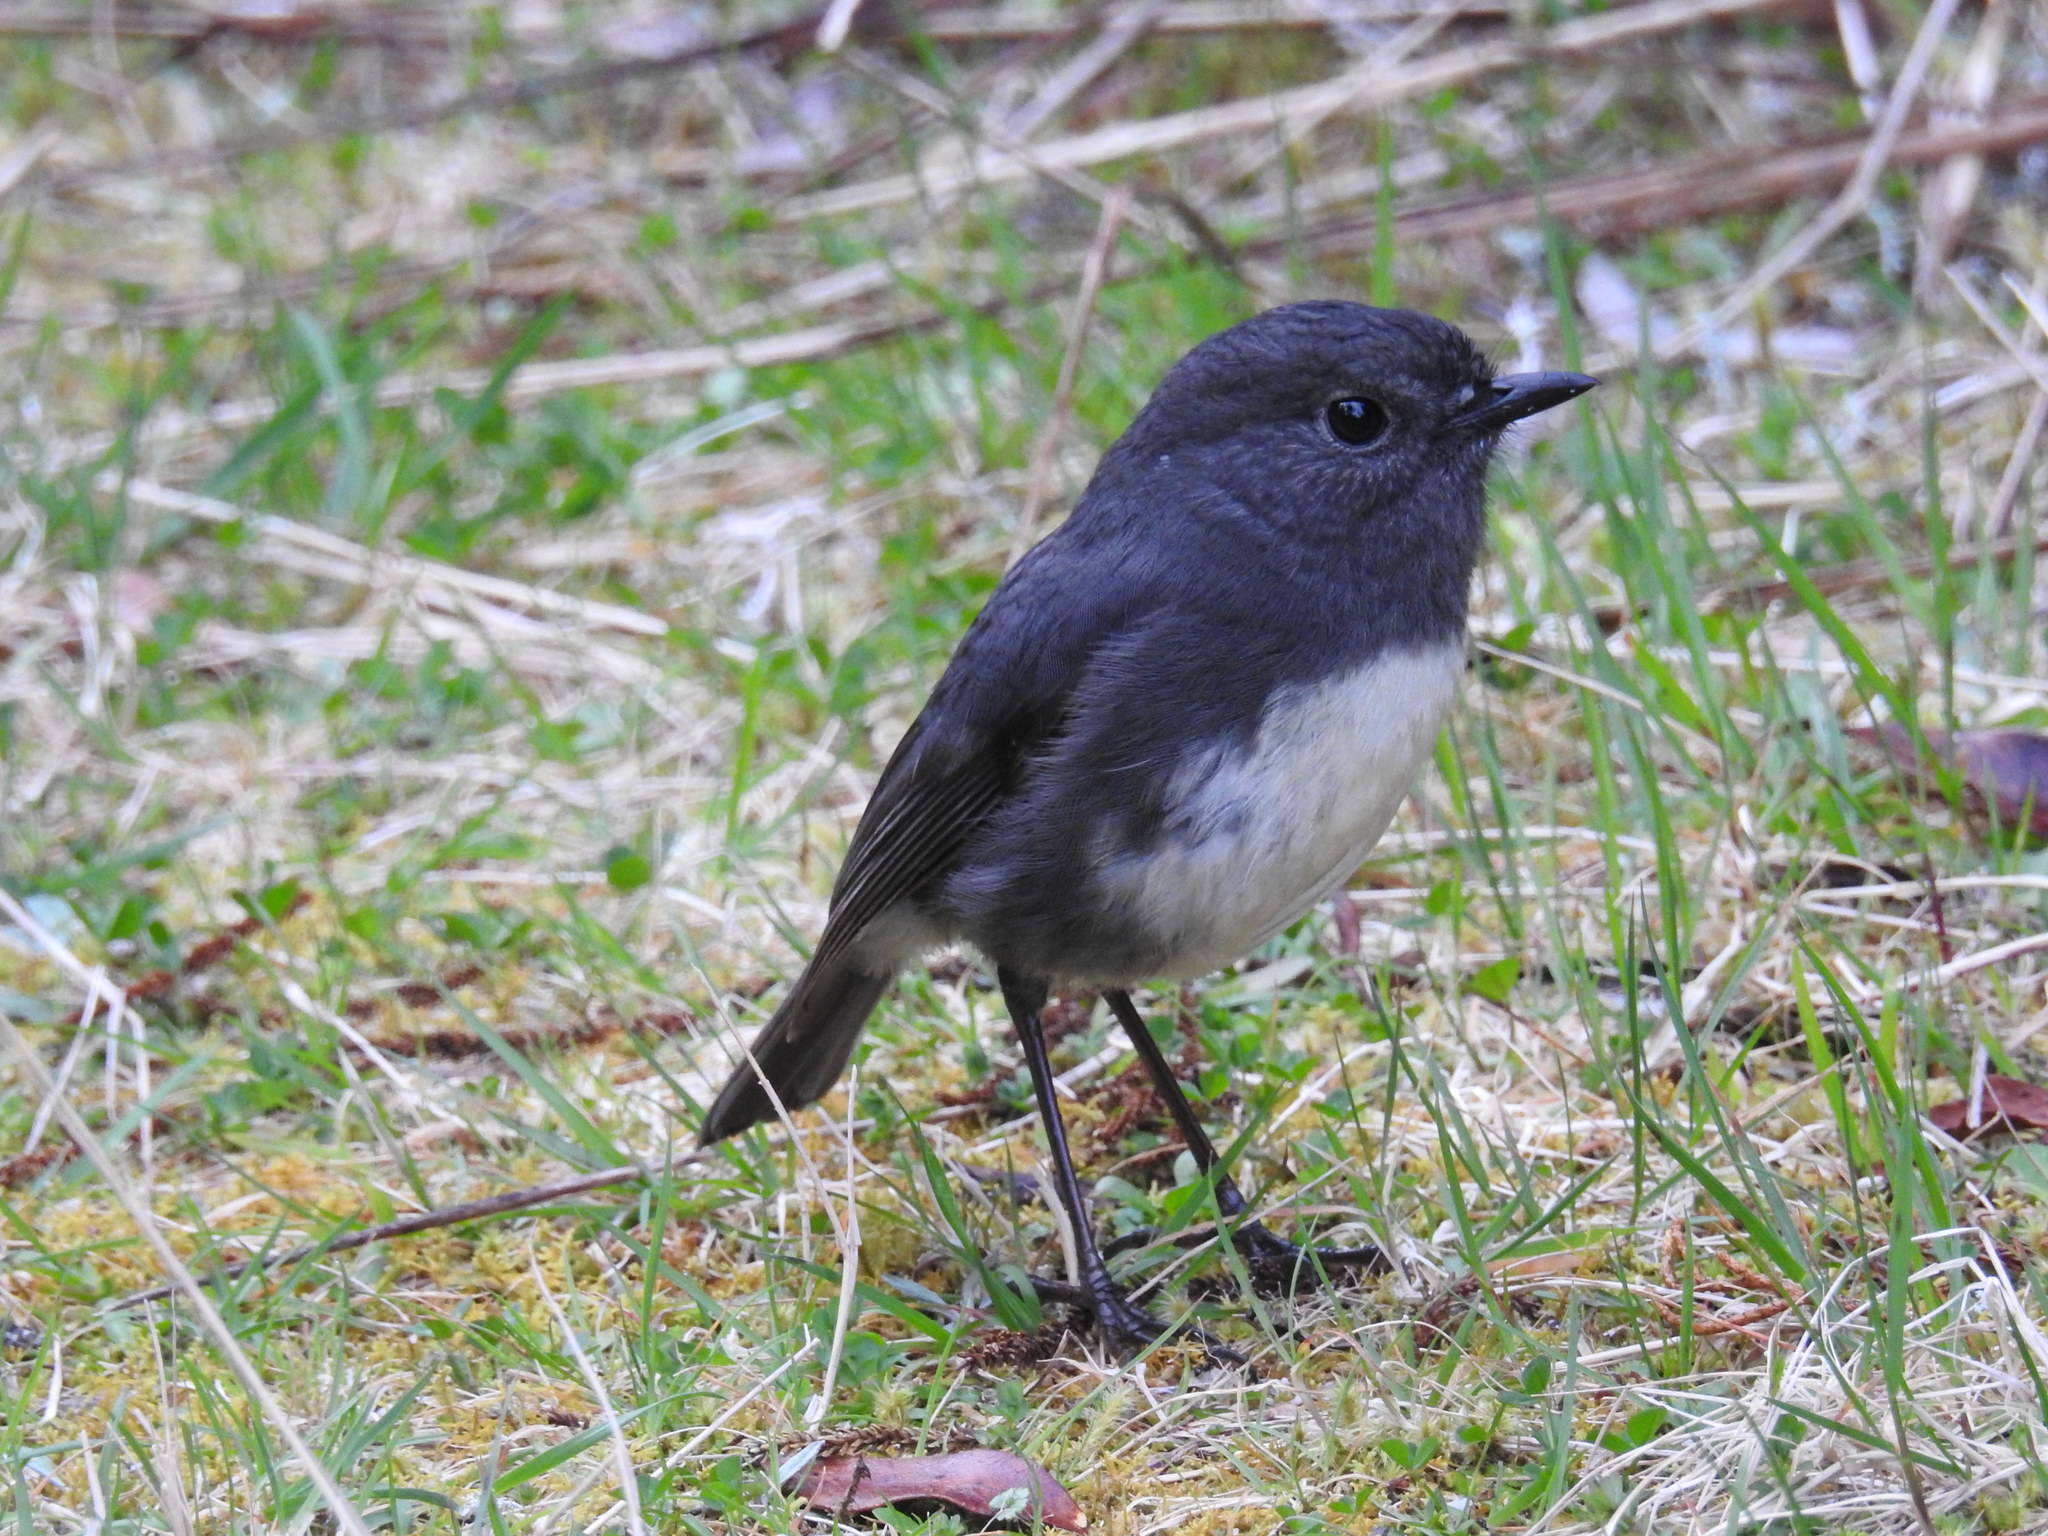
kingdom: Animalia
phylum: Chordata
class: Aves
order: Passeriformes
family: Petroicidae
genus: Petroica
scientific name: Petroica australis
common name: New zealand robin
